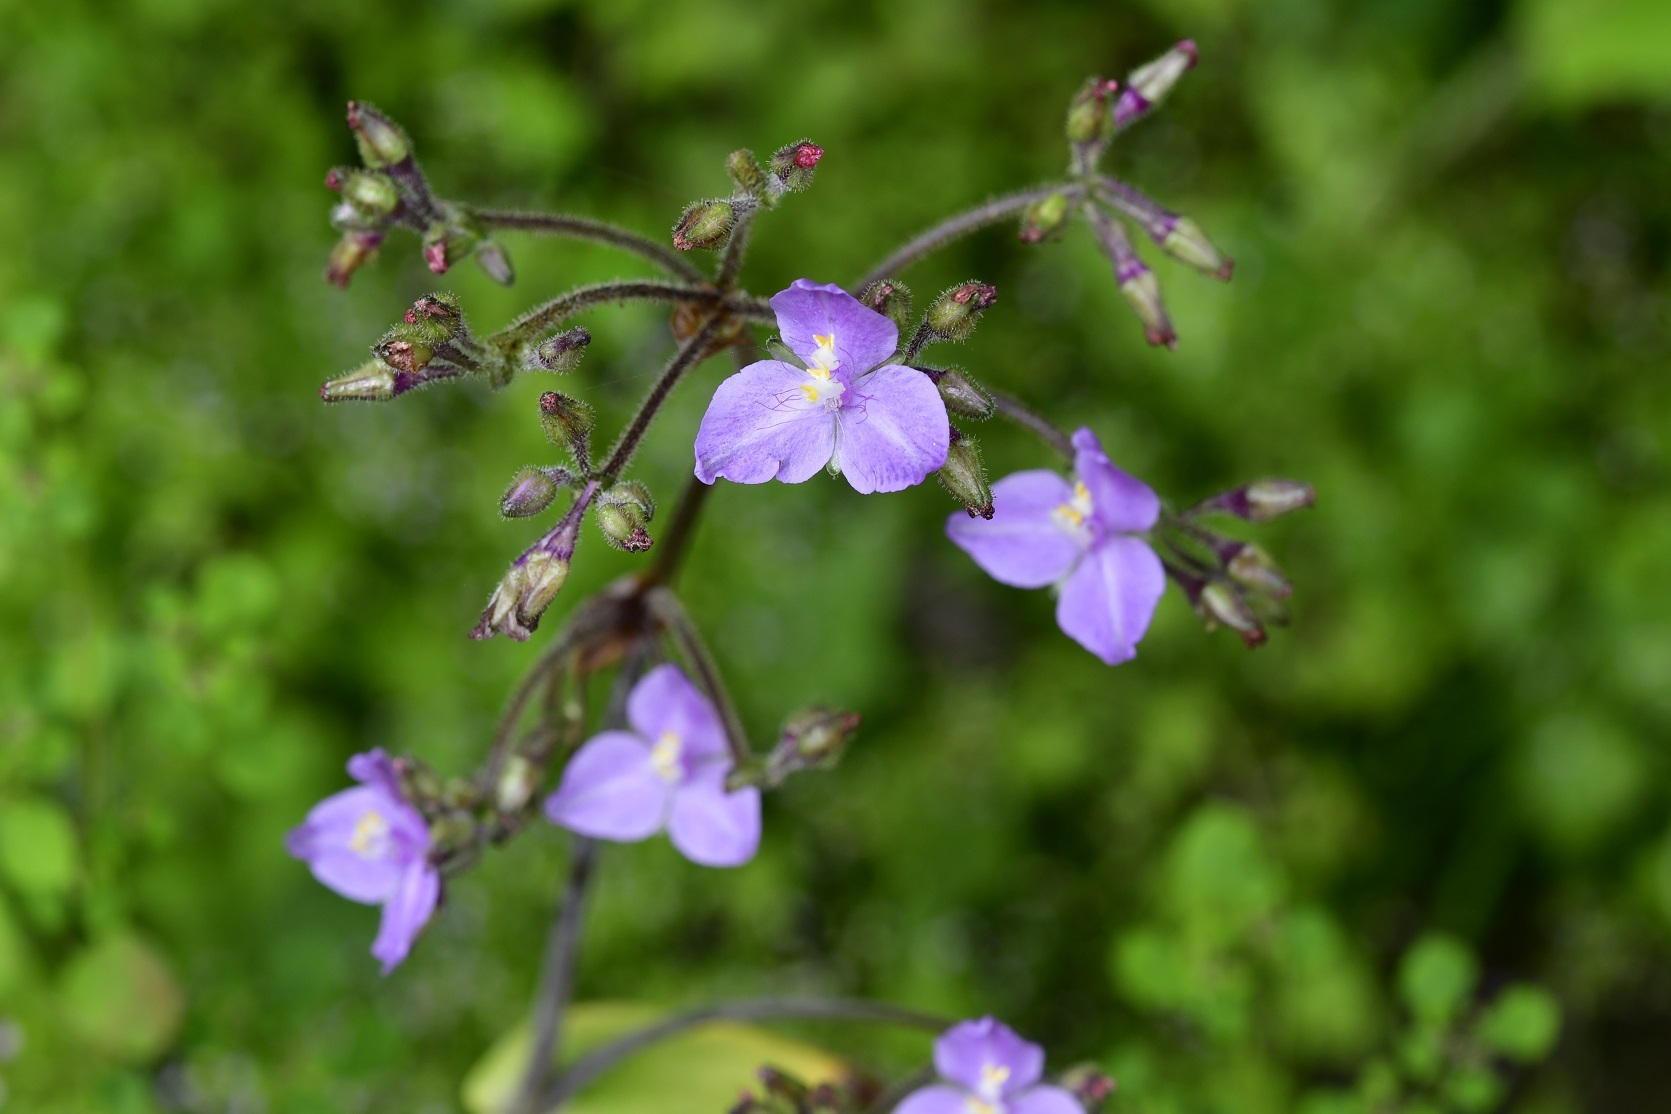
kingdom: Plantae
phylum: Tracheophyta
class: Liliopsida
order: Commelinales
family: Commelinaceae
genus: Callisia
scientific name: Callisia amplexicaulis
